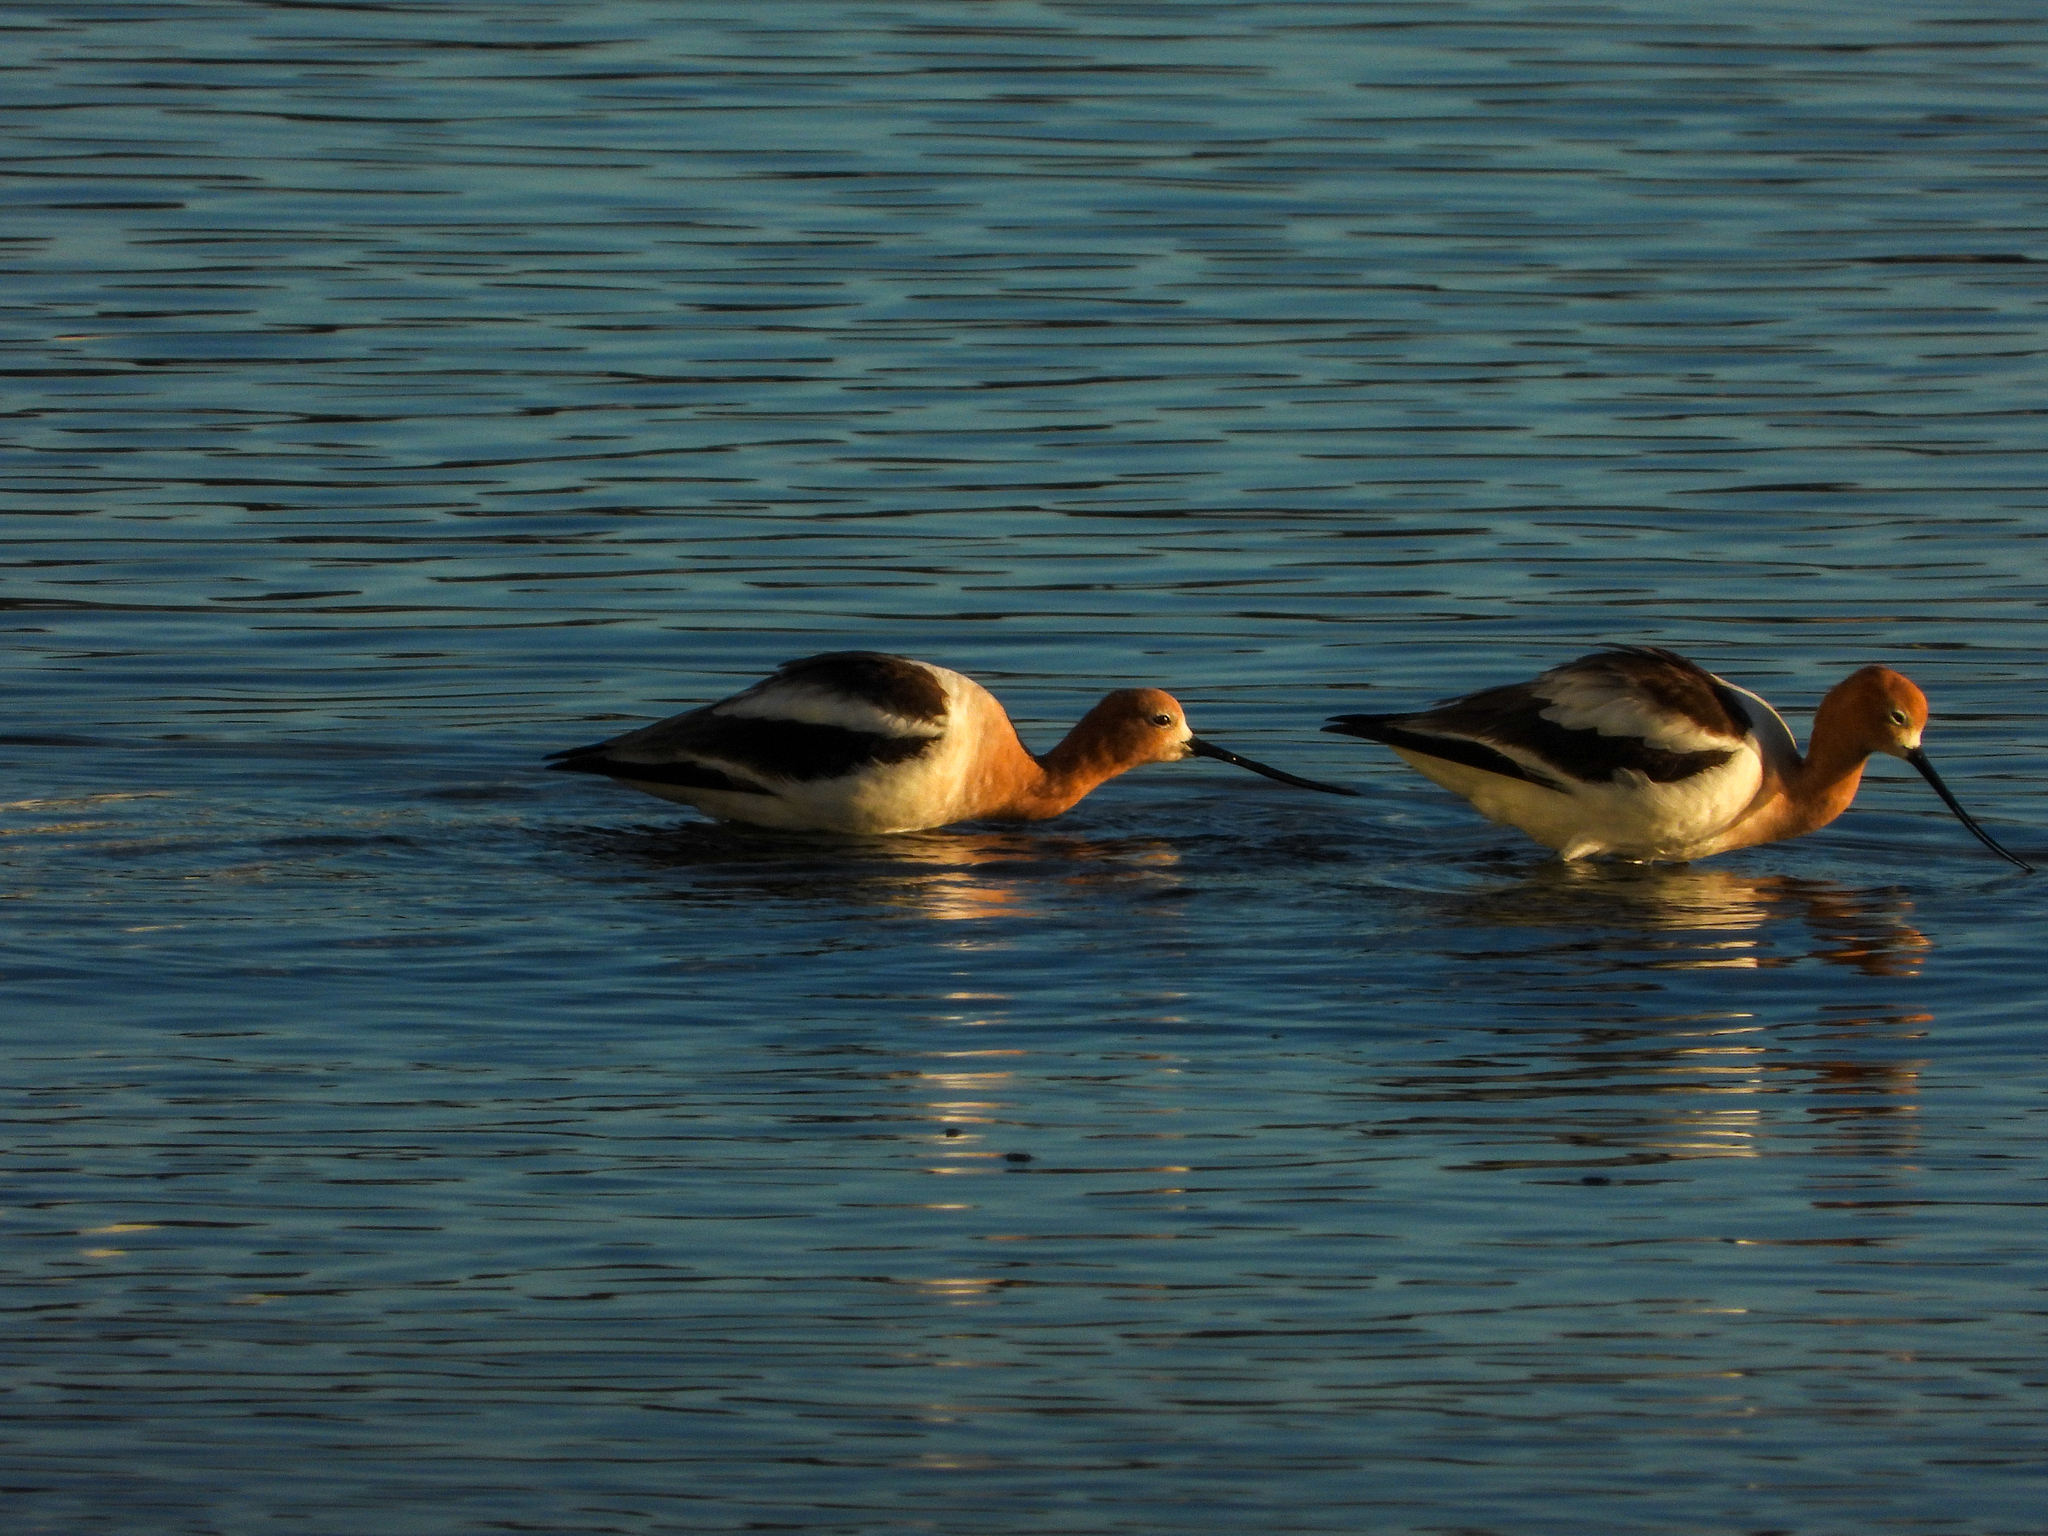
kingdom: Animalia
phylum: Chordata
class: Aves
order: Charadriiformes
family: Recurvirostridae
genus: Recurvirostra
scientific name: Recurvirostra americana
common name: American avocet
